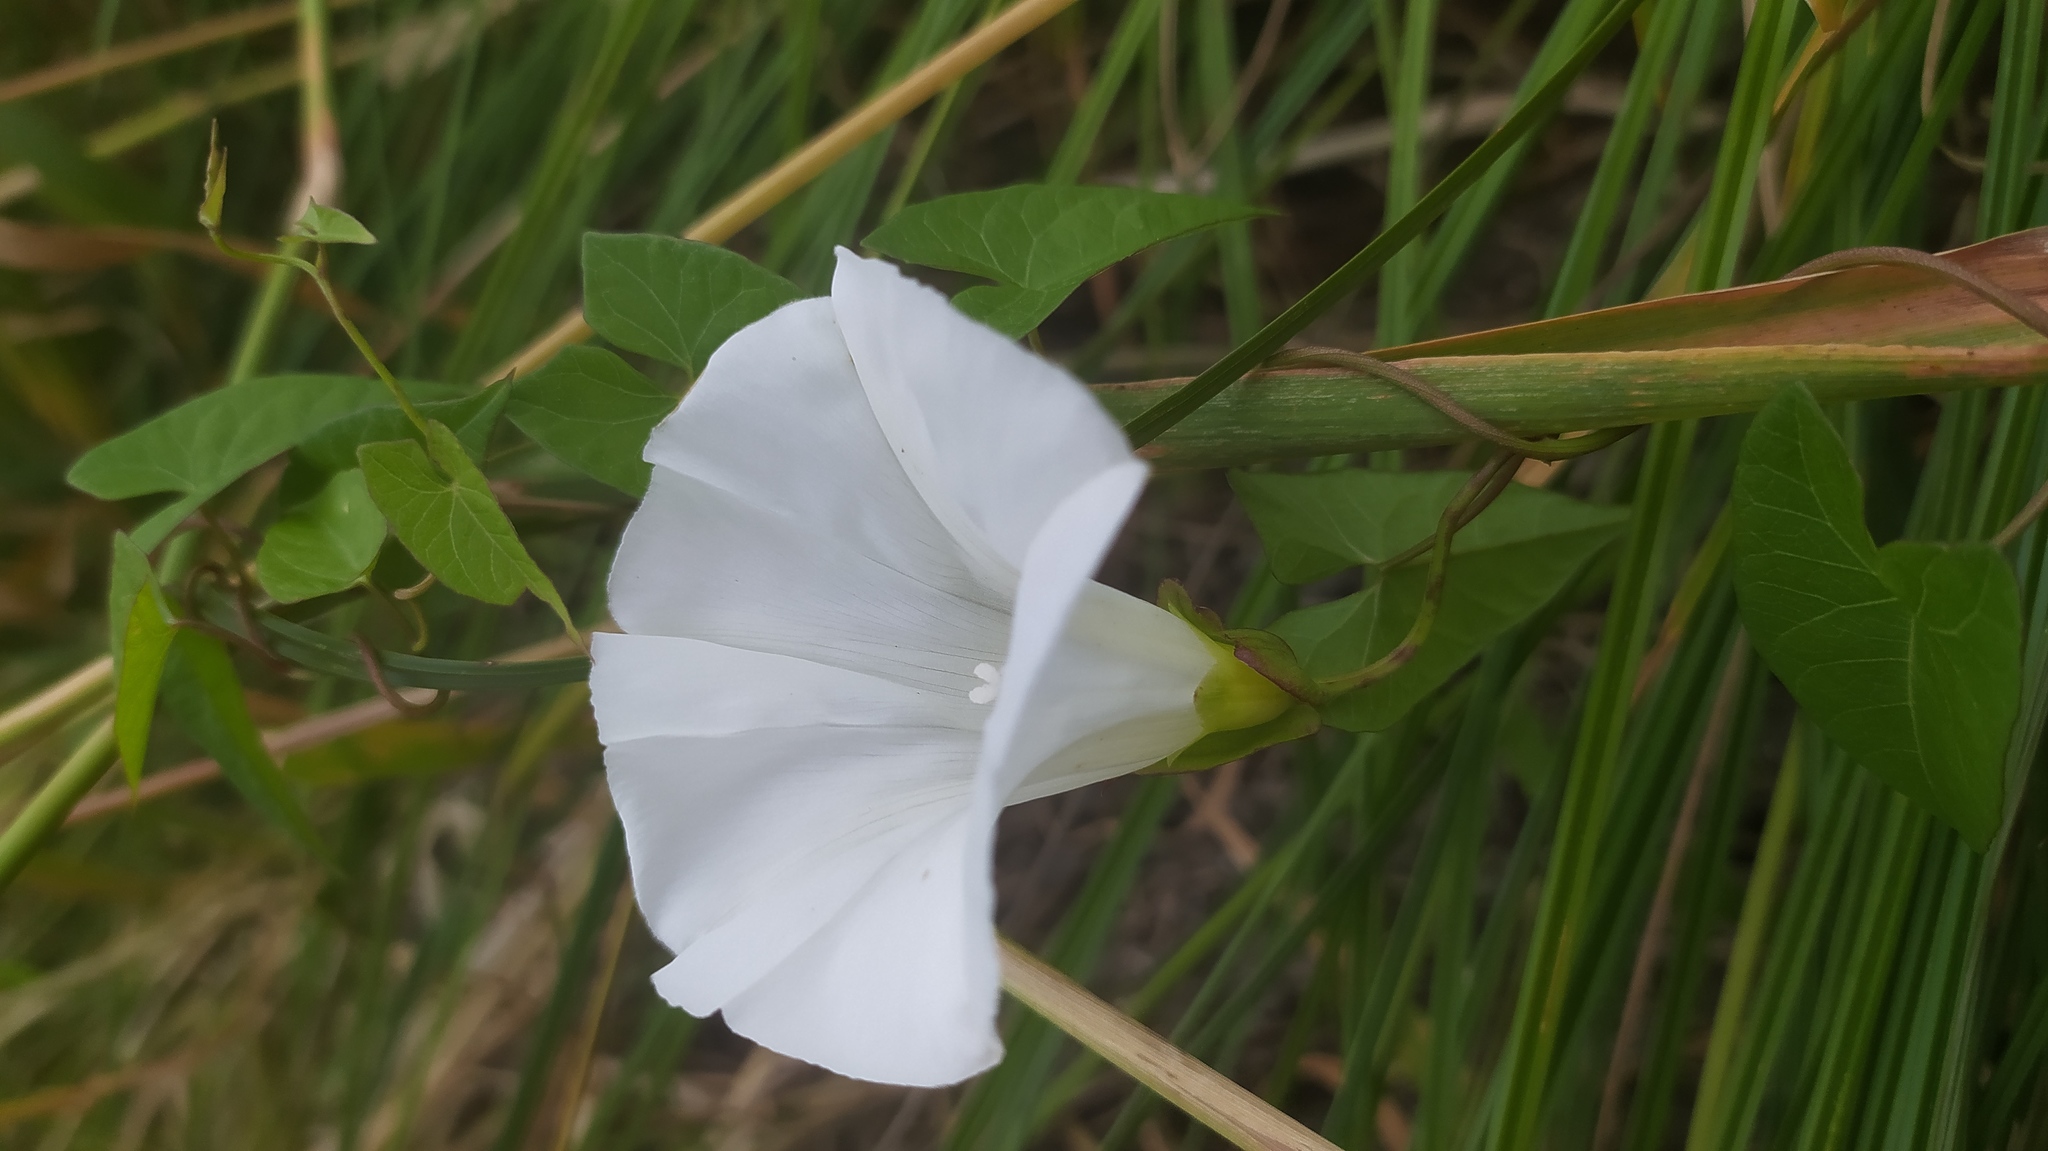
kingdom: Plantae
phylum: Tracheophyta
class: Magnoliopsida
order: Solanales
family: Convolvulaceae
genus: Calystegia
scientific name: Calystegia sepium
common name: Hedge bindweed
